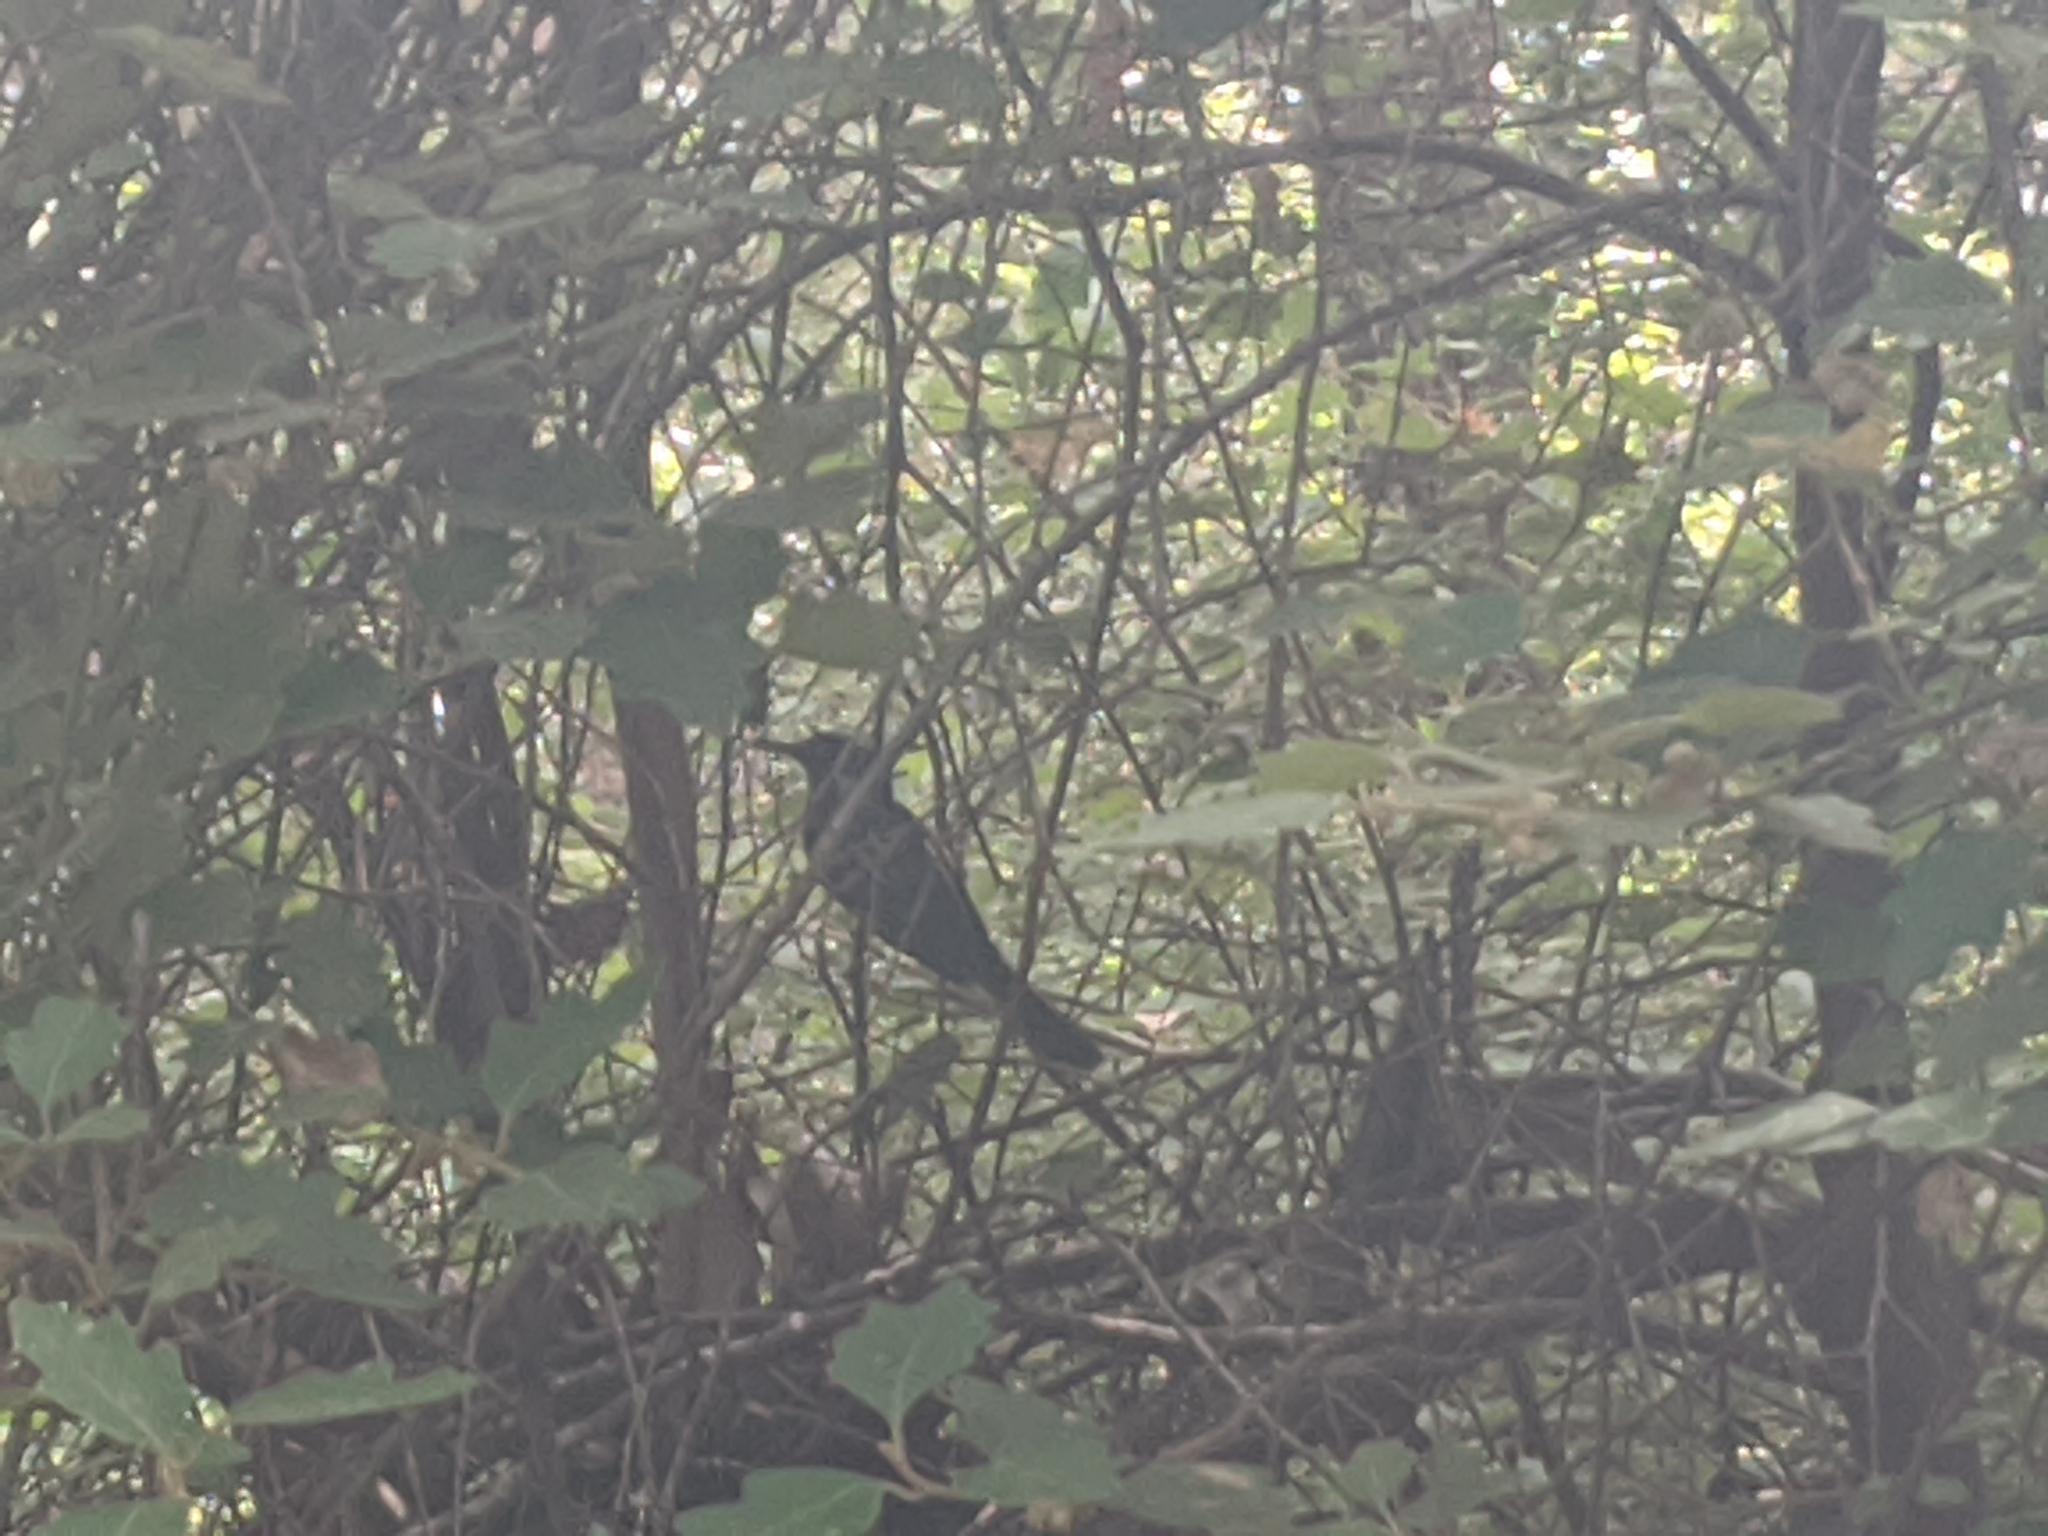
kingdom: Animalia
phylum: Chordata
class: Aves
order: Passeriformes
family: Meliphagidae
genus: Phylidonyris
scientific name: Phylidonyris novaehollandiae
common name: New holland honeyeater
